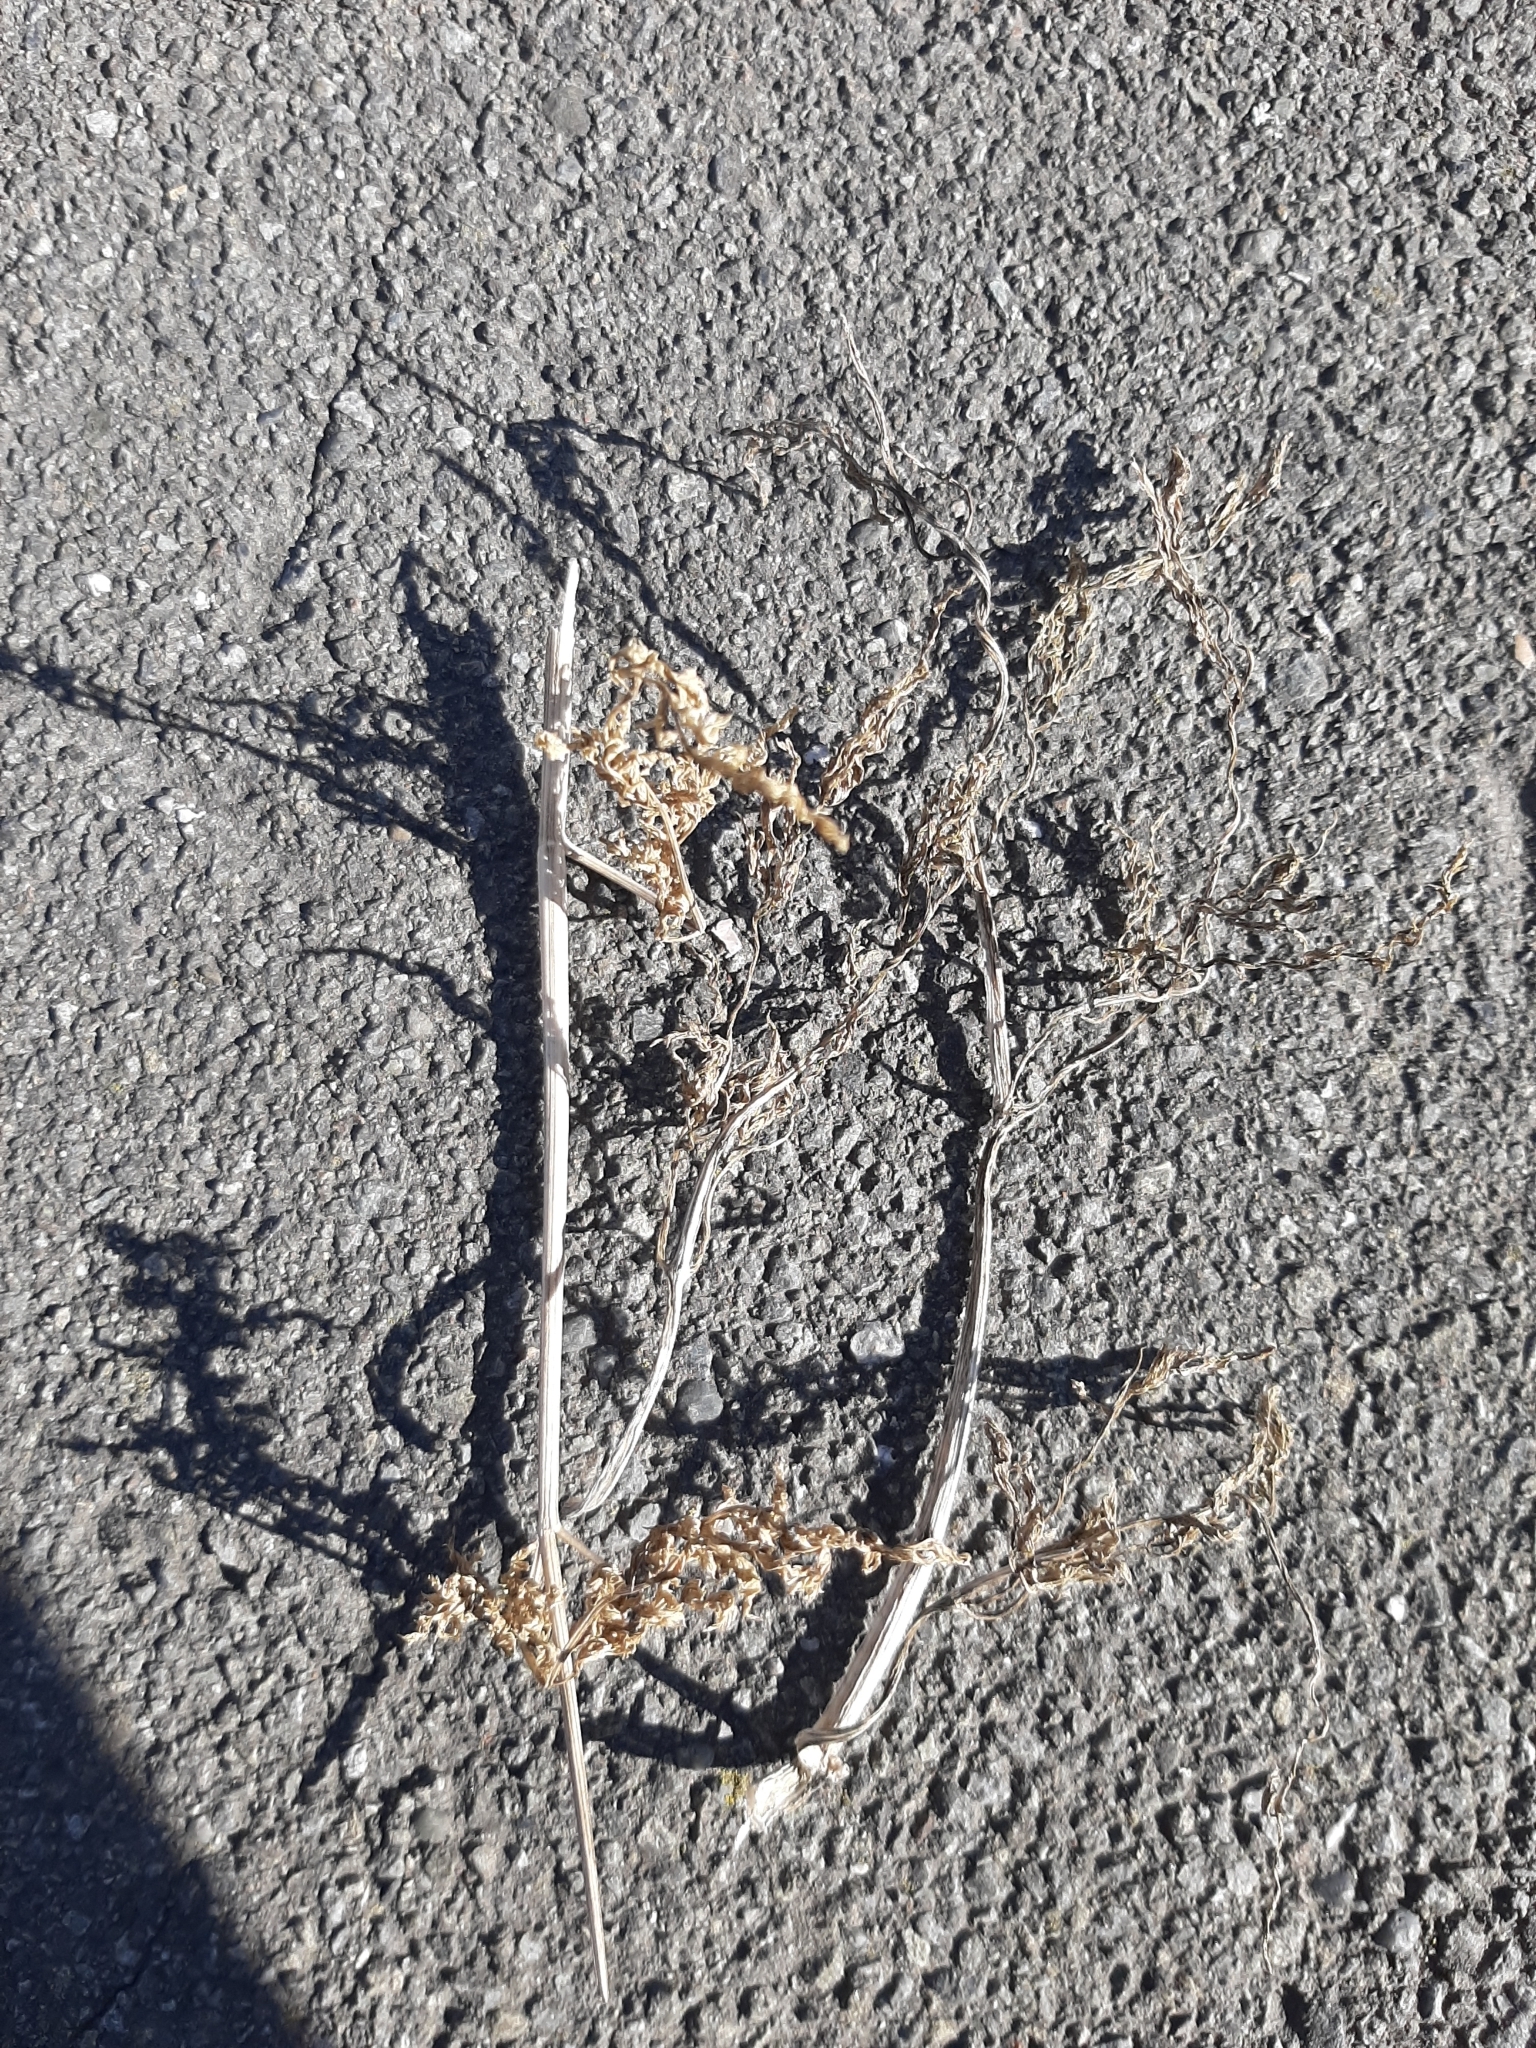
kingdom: Plantae
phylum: Tracheophyta
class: Magnoliopsida
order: Apiales
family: Apiaceae
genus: Conium
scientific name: Conium maculatum
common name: Hemlock
